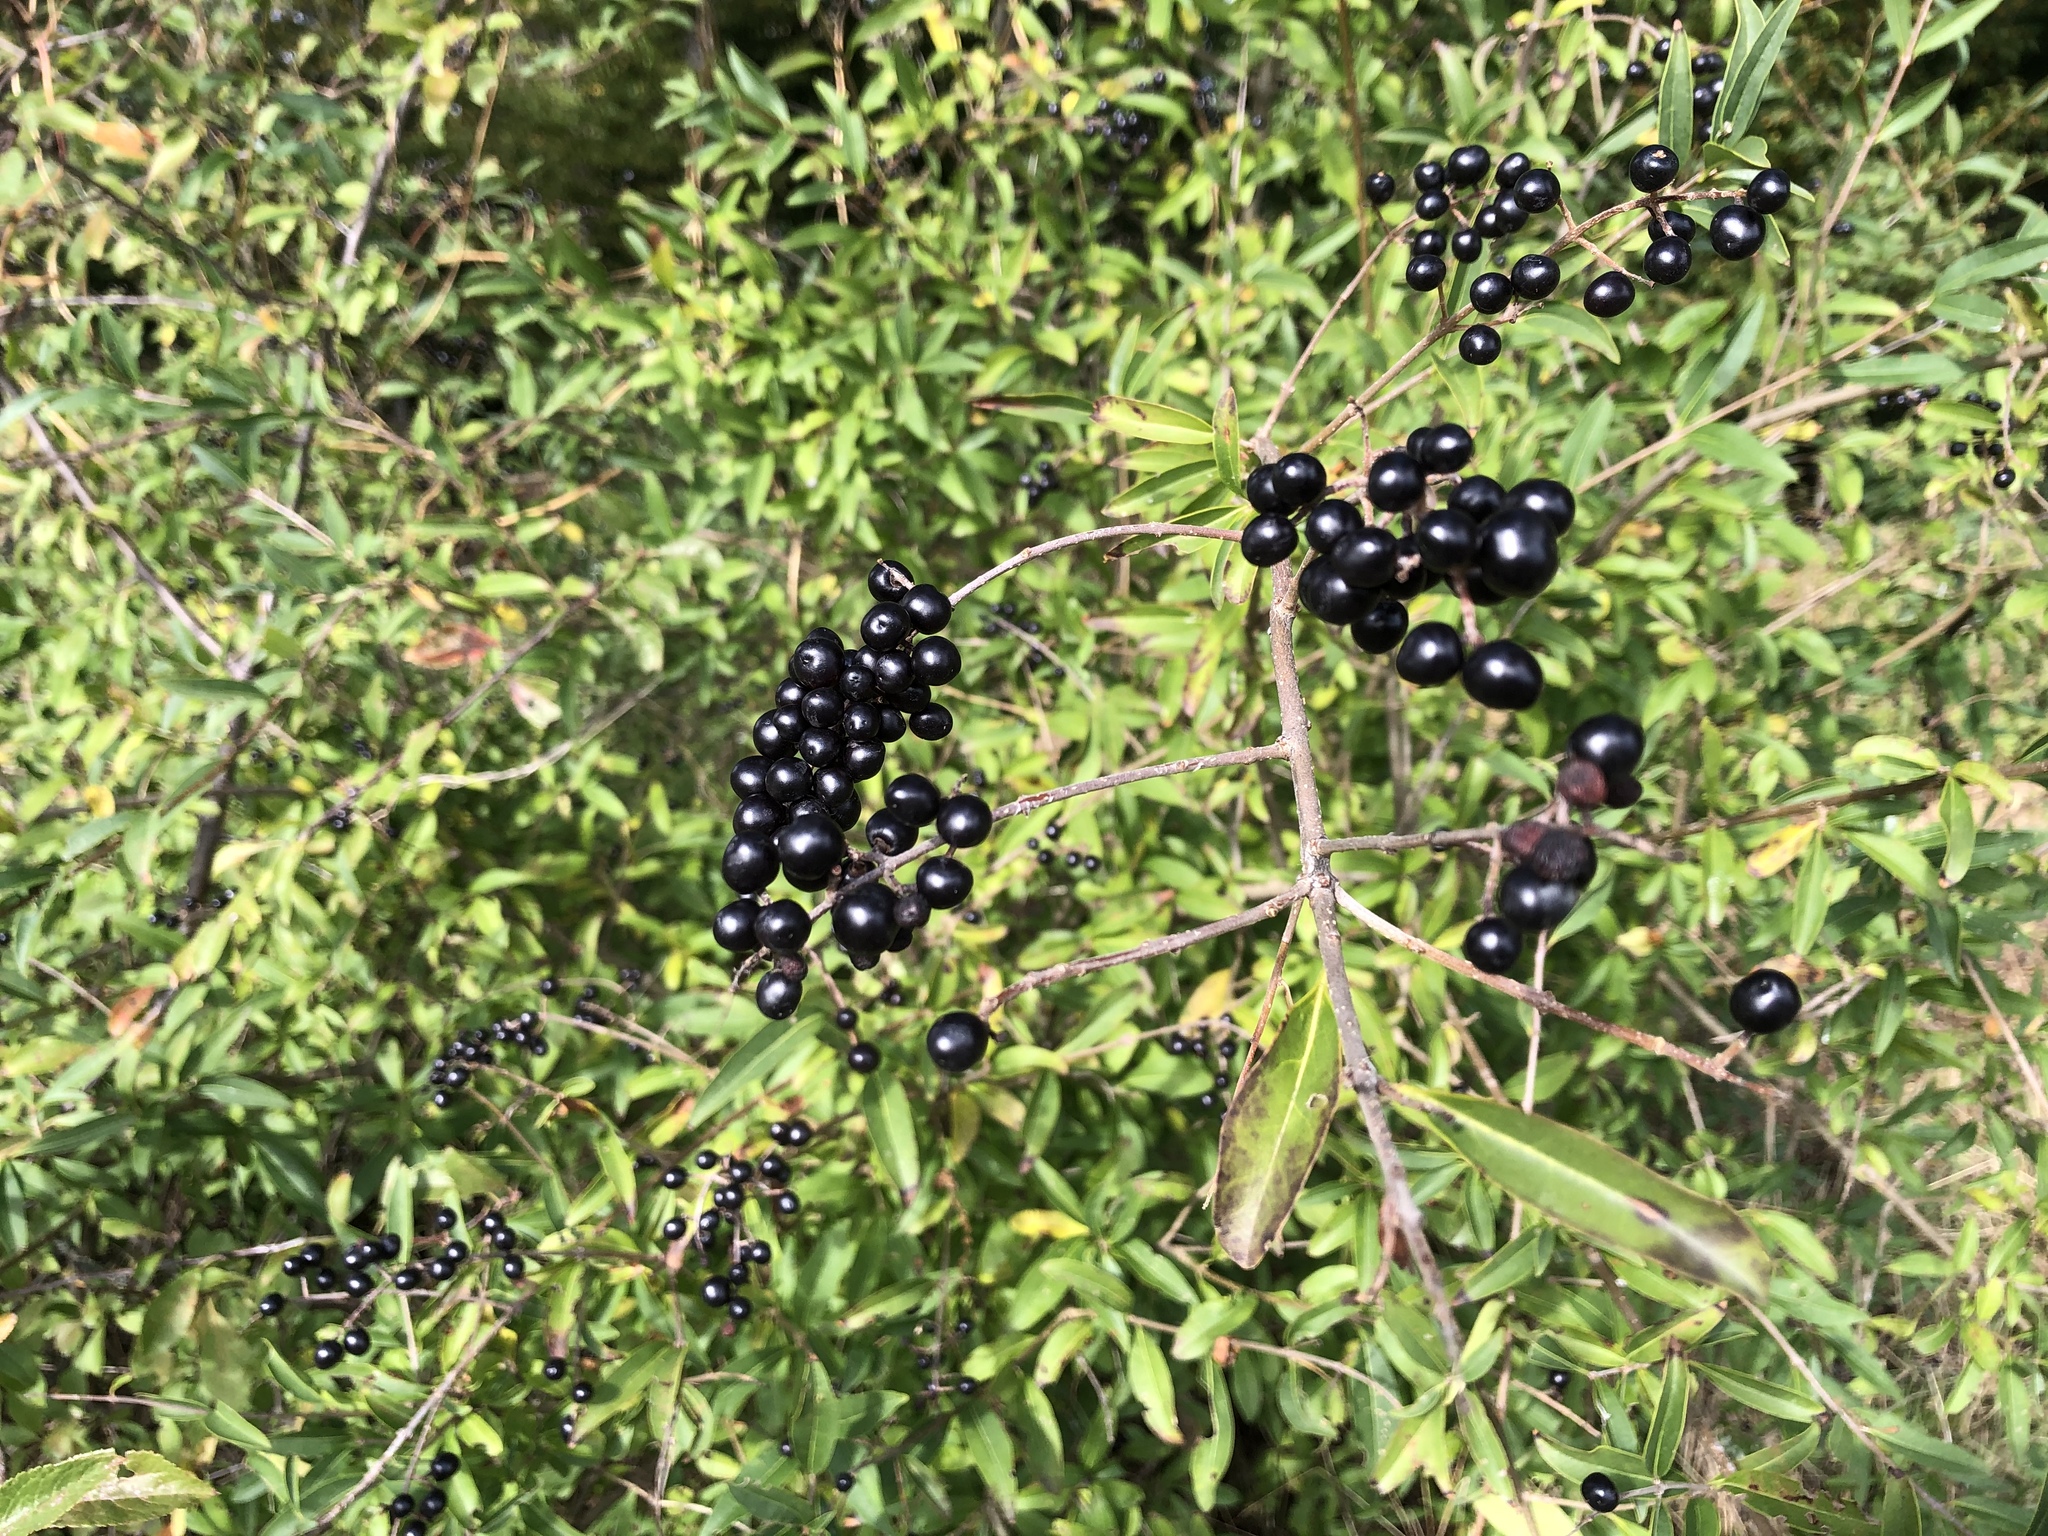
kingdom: Plantae
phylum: Tracheophyta
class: Magnoliopsida
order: Lamiales
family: Oleaceae
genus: Ligustrum
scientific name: Ligustrum vulgare
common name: Wild privet
